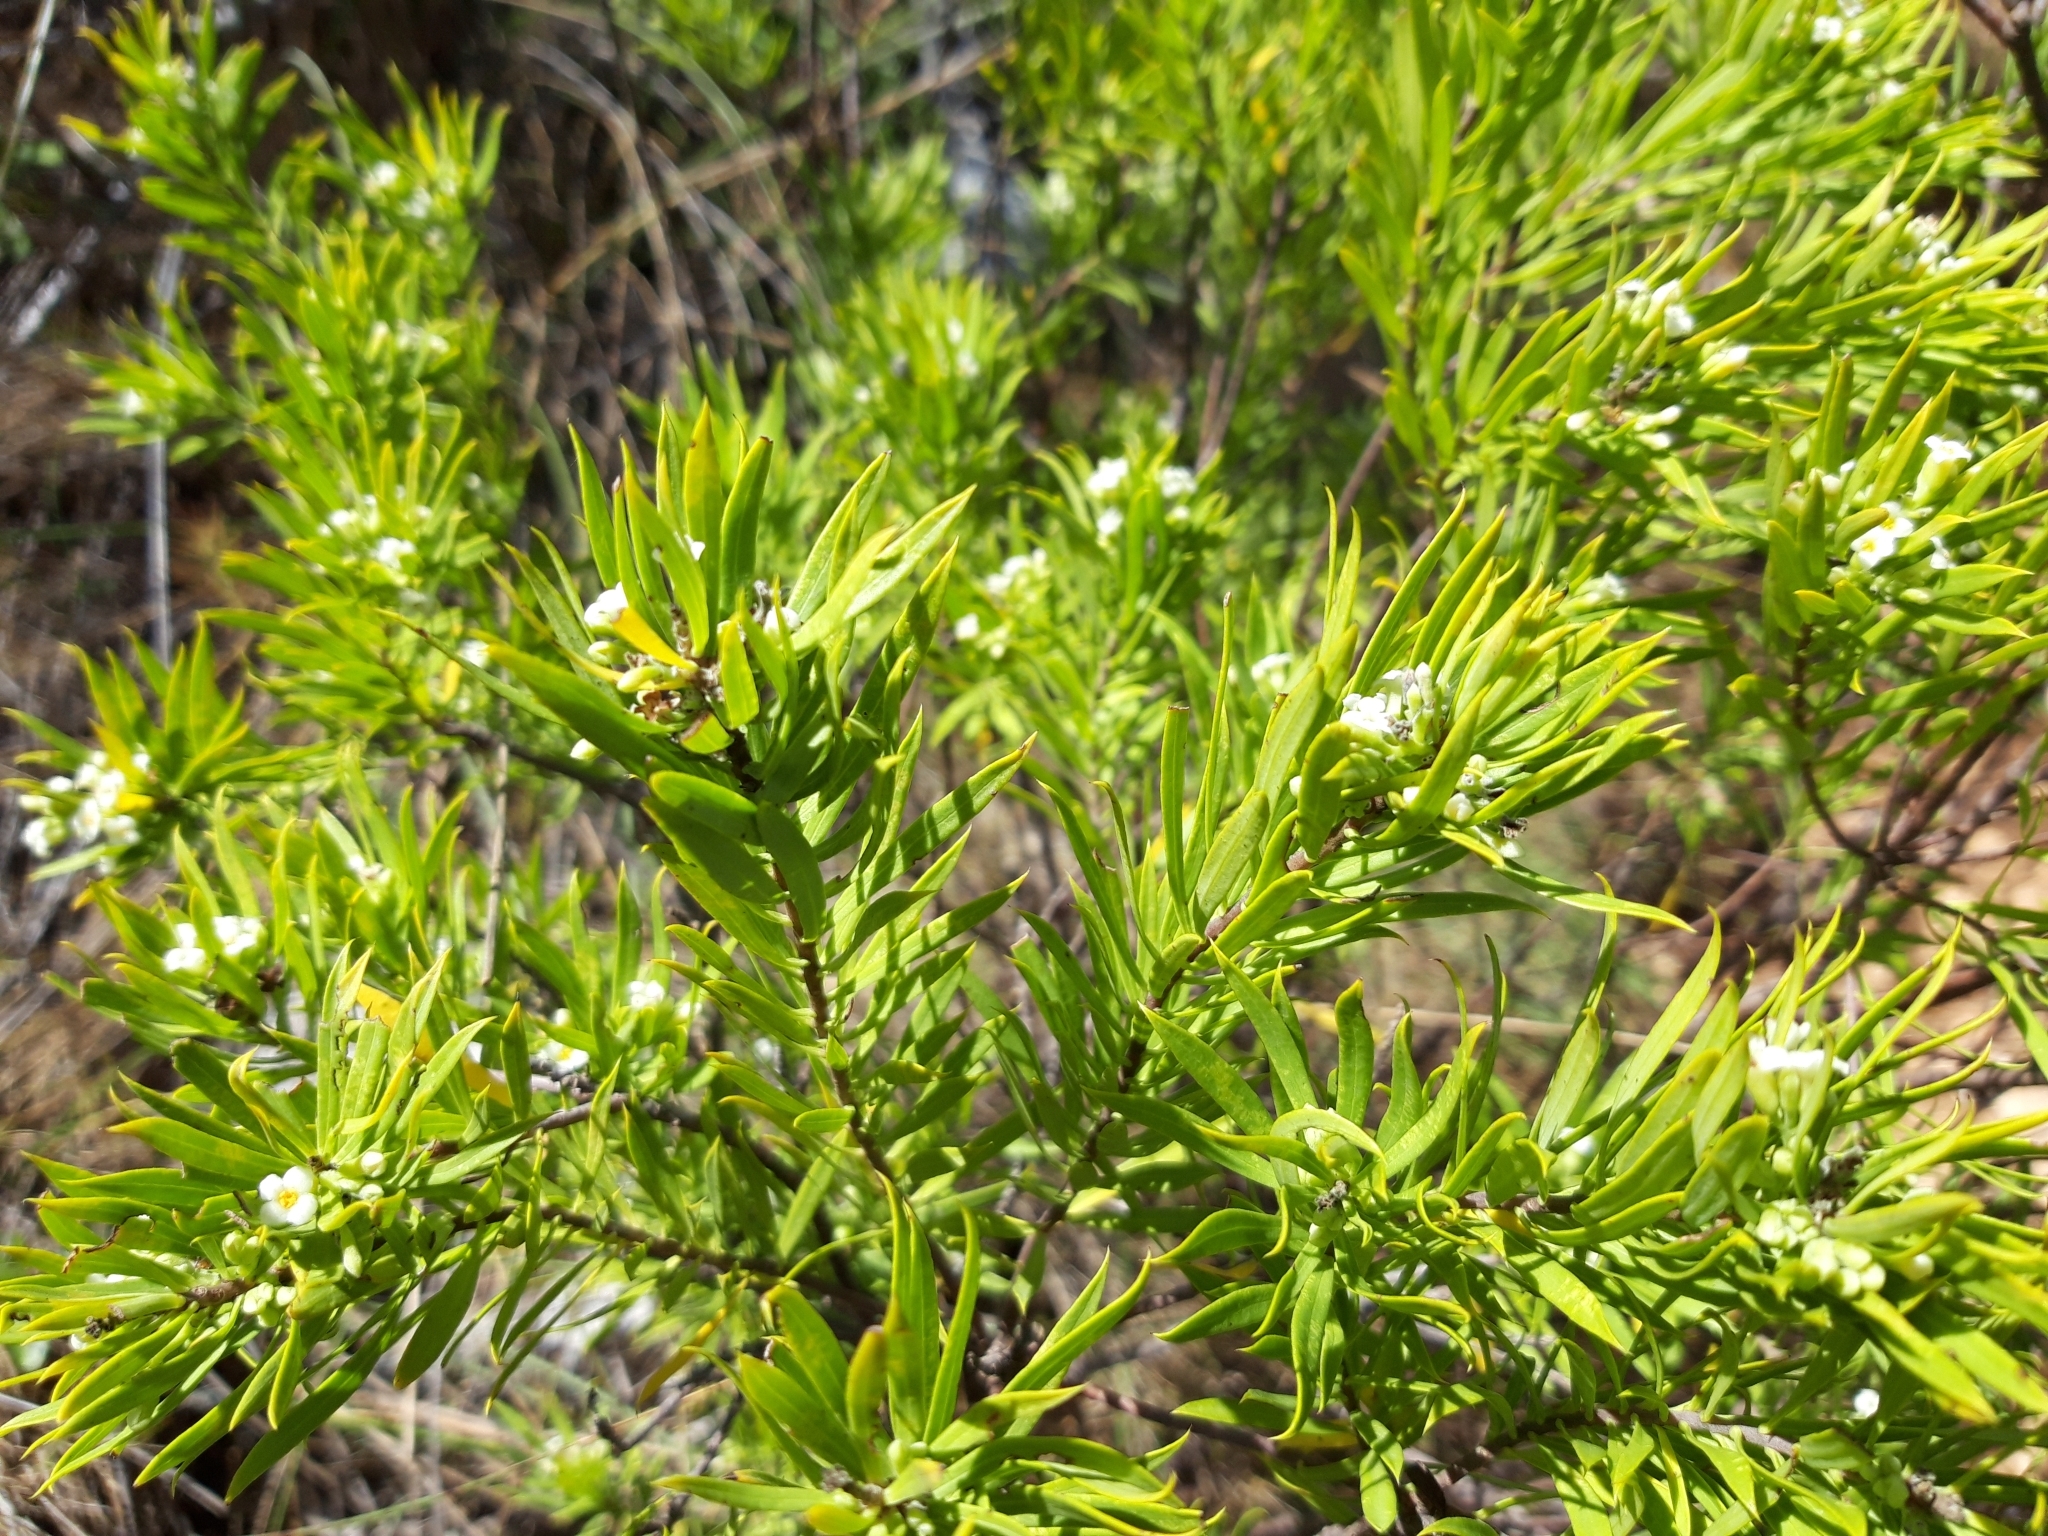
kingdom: Plantae
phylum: Tracheophyta
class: Magnoliopsida
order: Malvales
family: Thymelaeaceae
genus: Daphne
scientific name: Daphne gnidium
